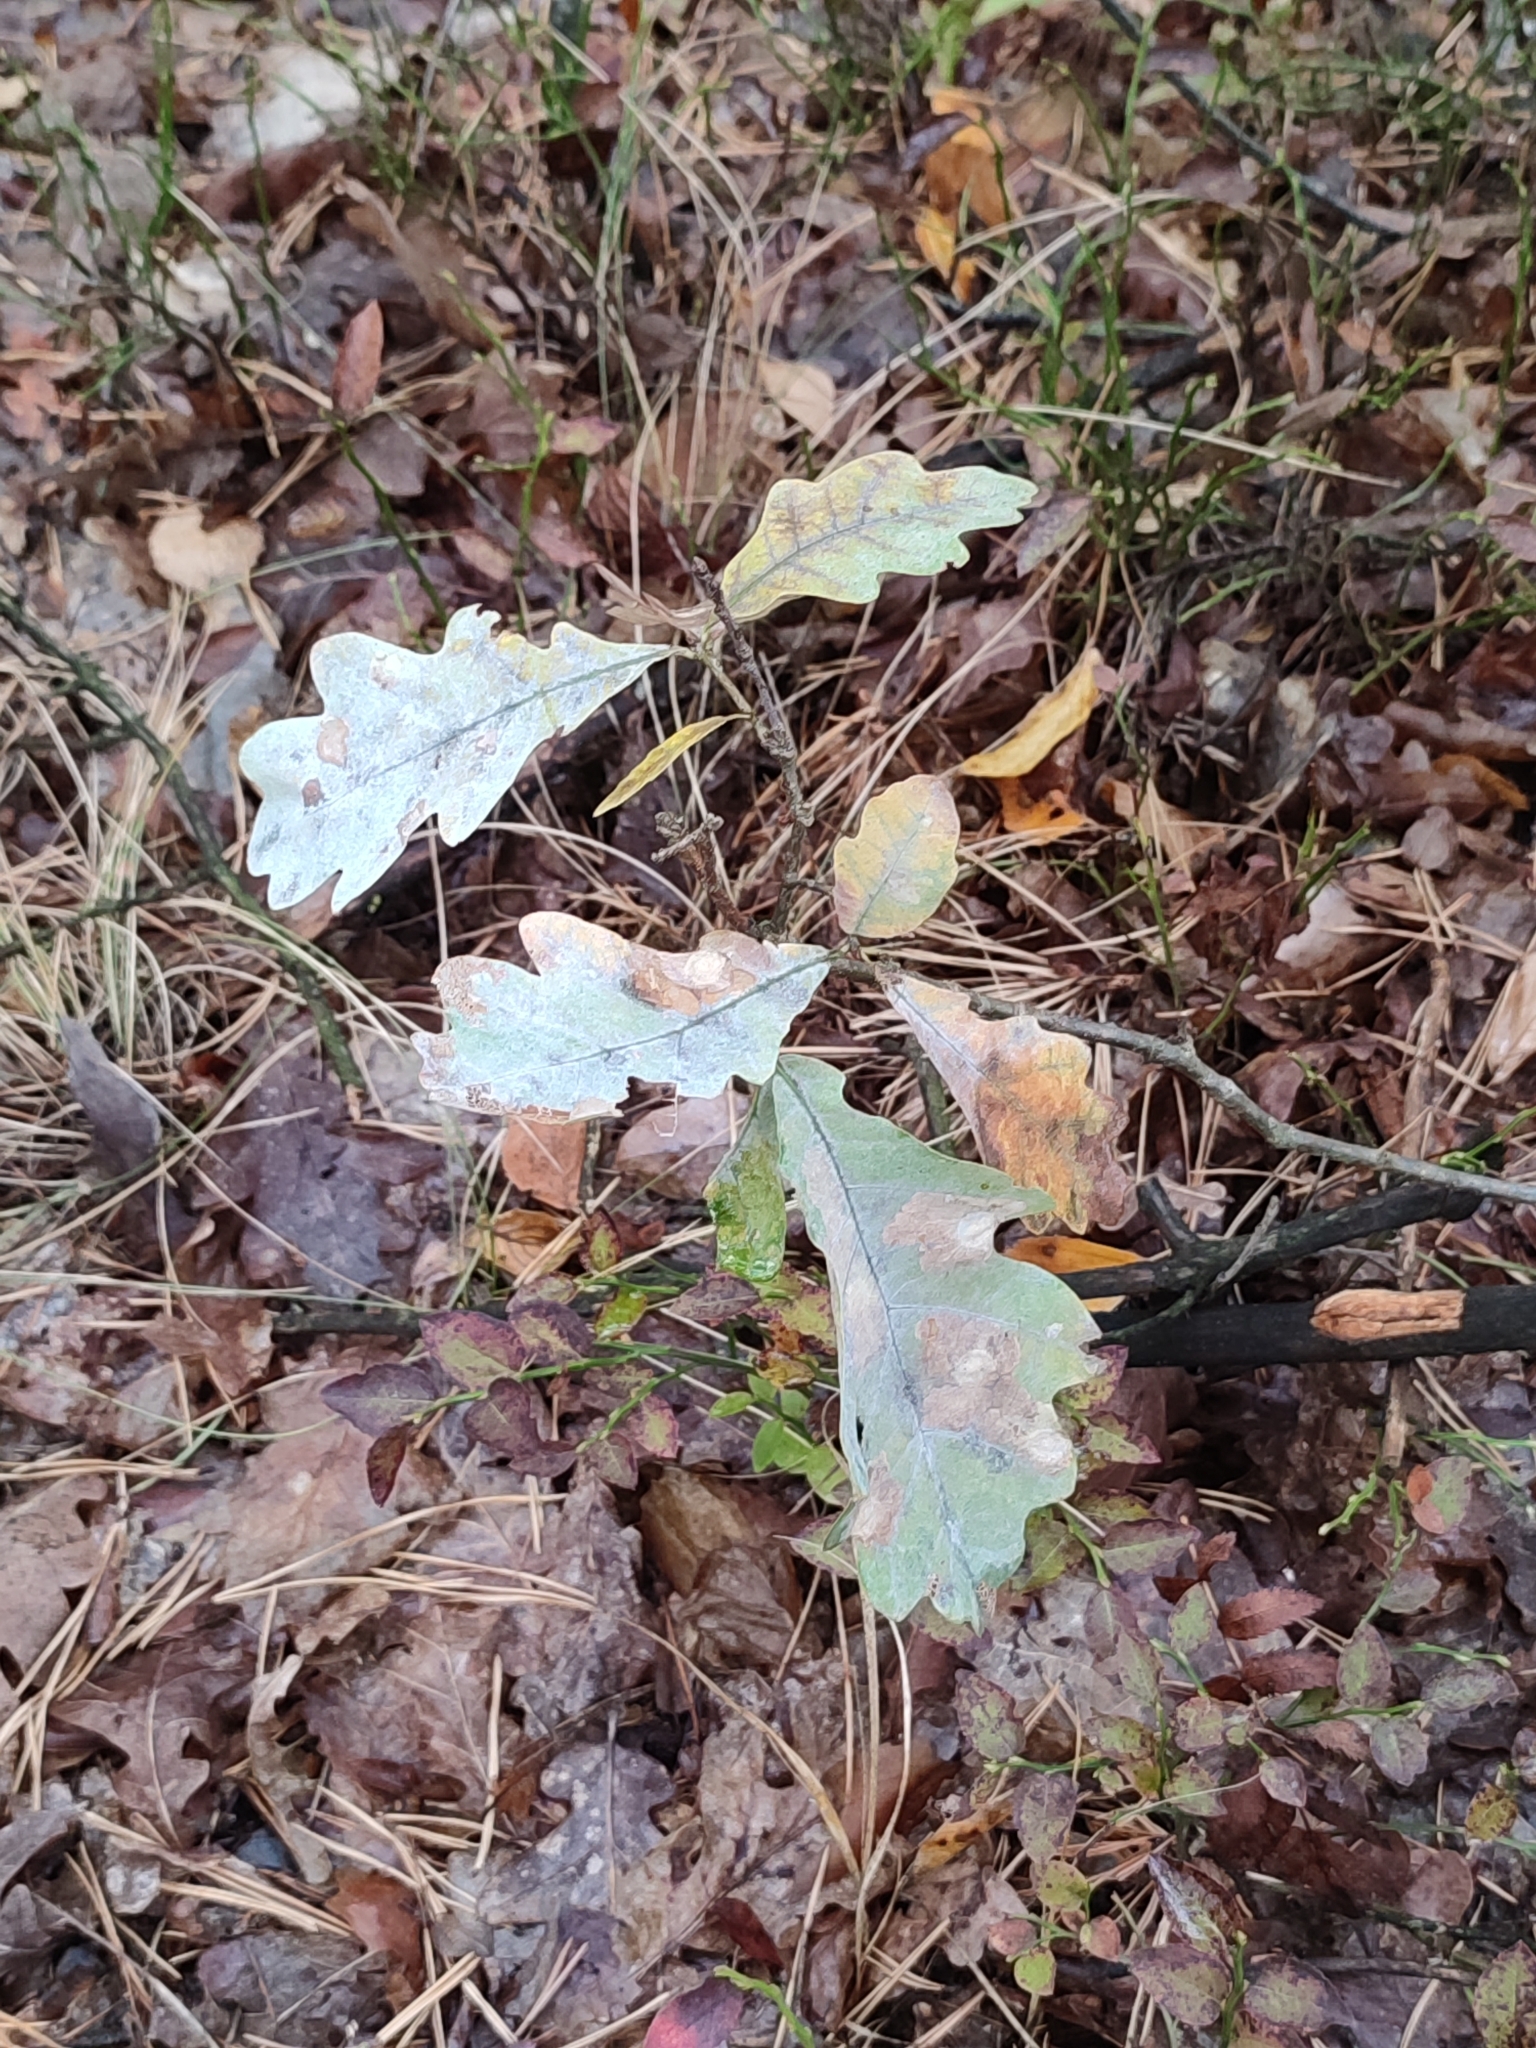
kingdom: Plantae
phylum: Tracheophyta
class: Magnoliopsida
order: Fagales
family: Fagaceae
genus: Quercus
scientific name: Quercus robur
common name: Pedunculate oak
